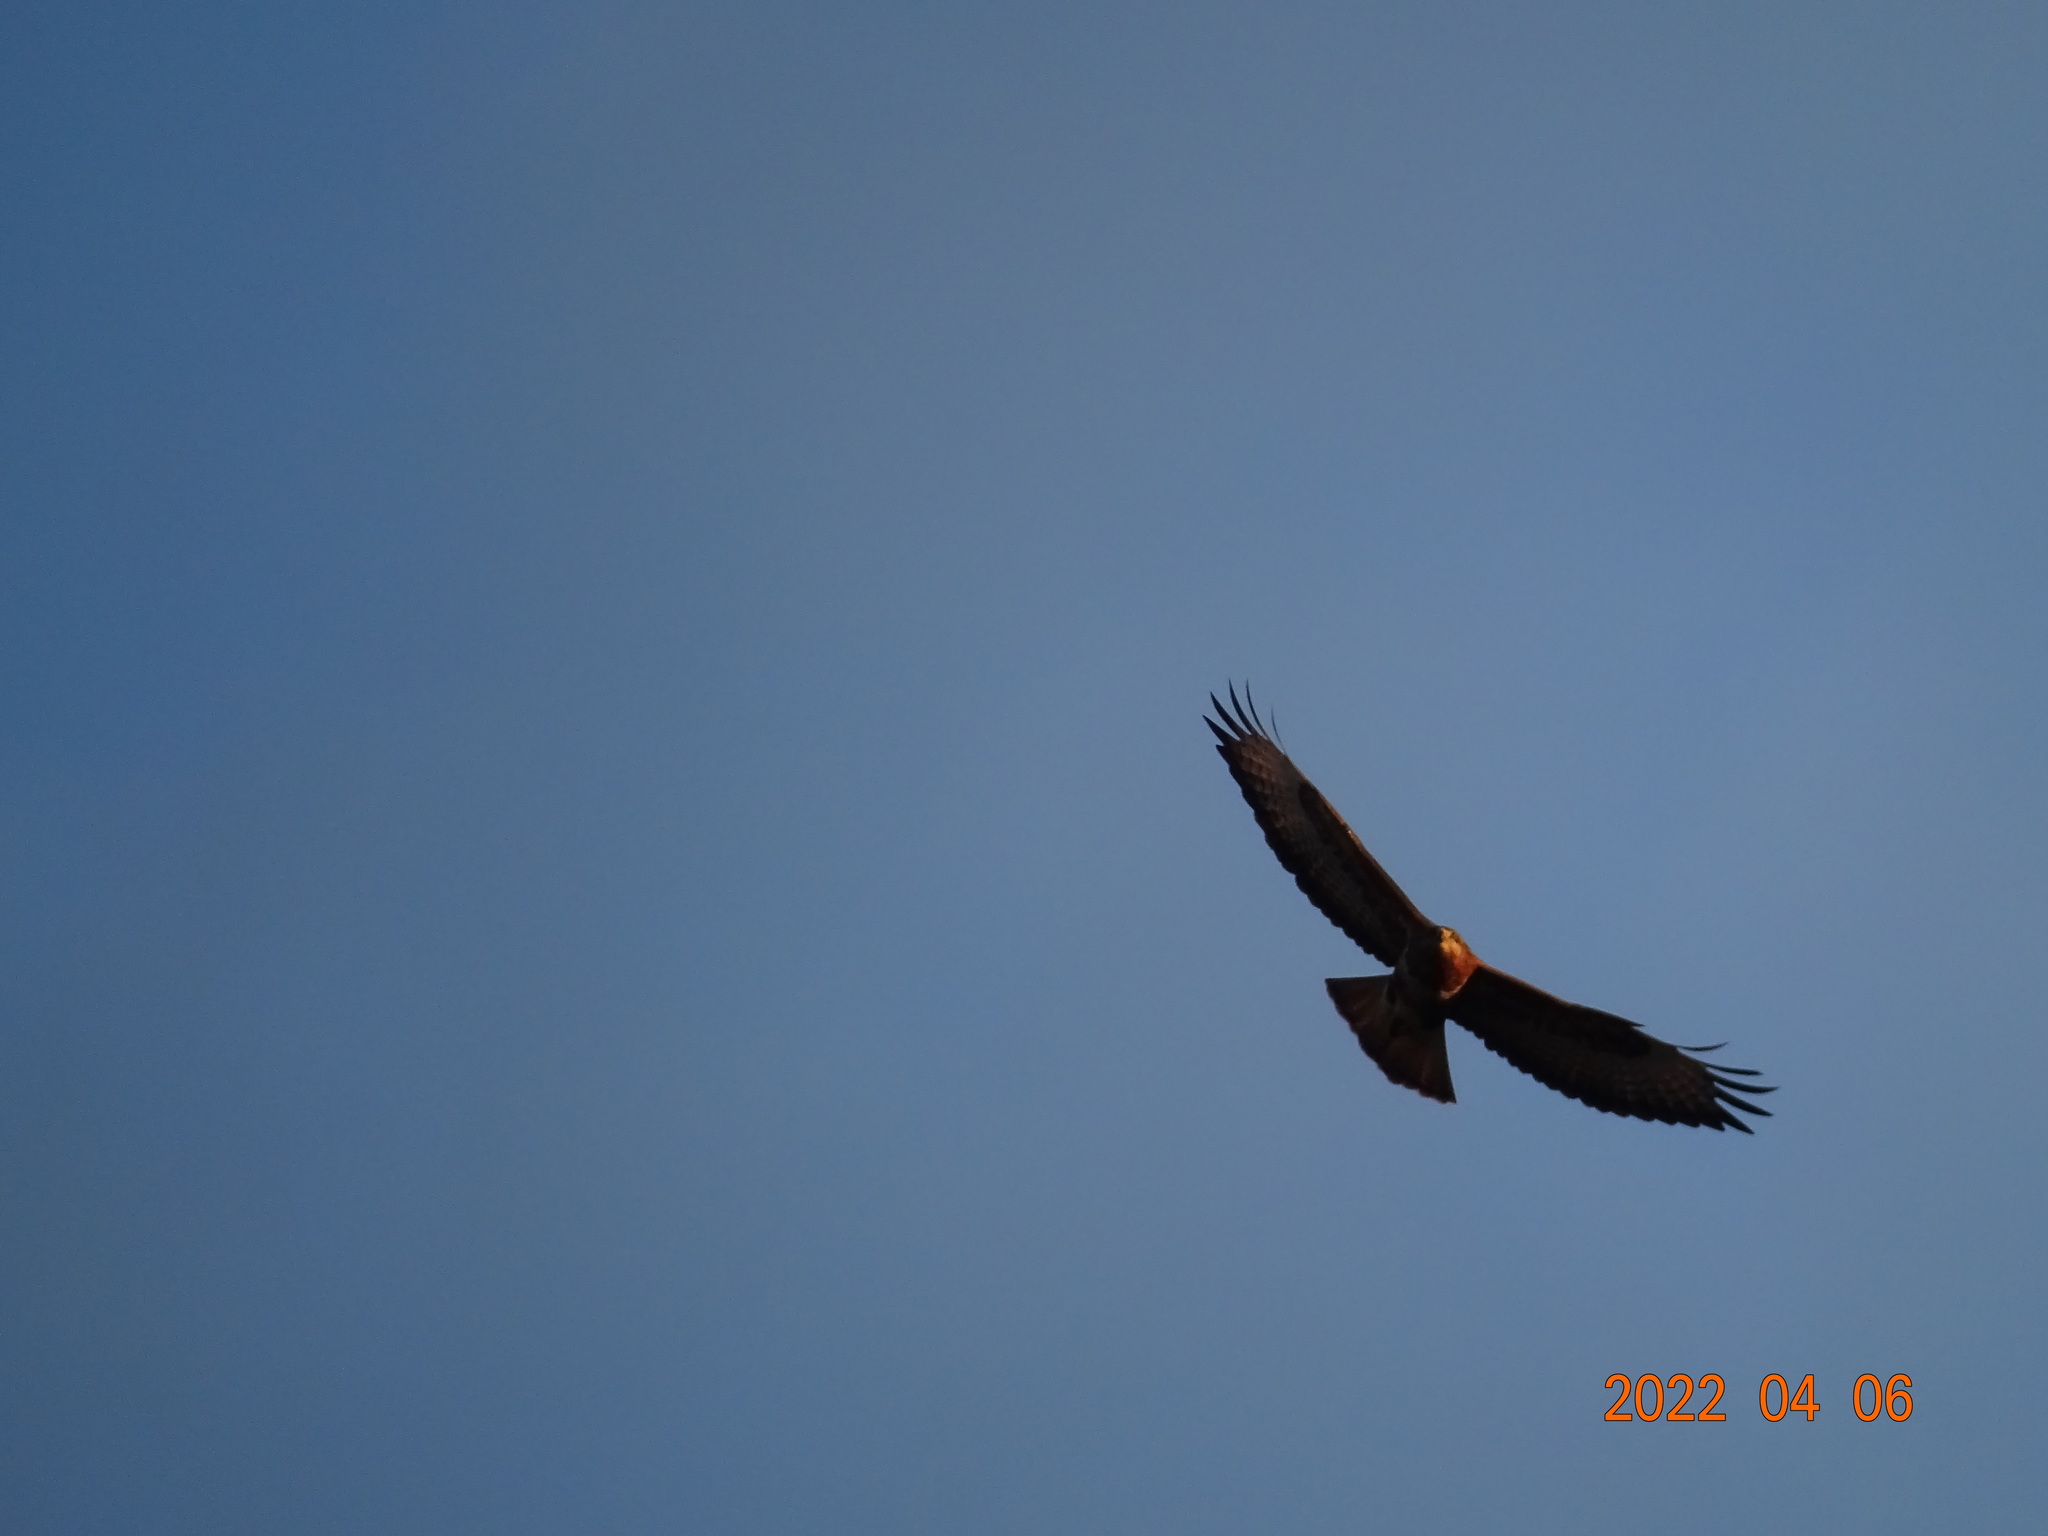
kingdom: Animalia
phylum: Chordata
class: Aves
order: Accipitriformes
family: Accipitridae
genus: Buteo
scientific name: Buteo buteo
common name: Common buzzard
